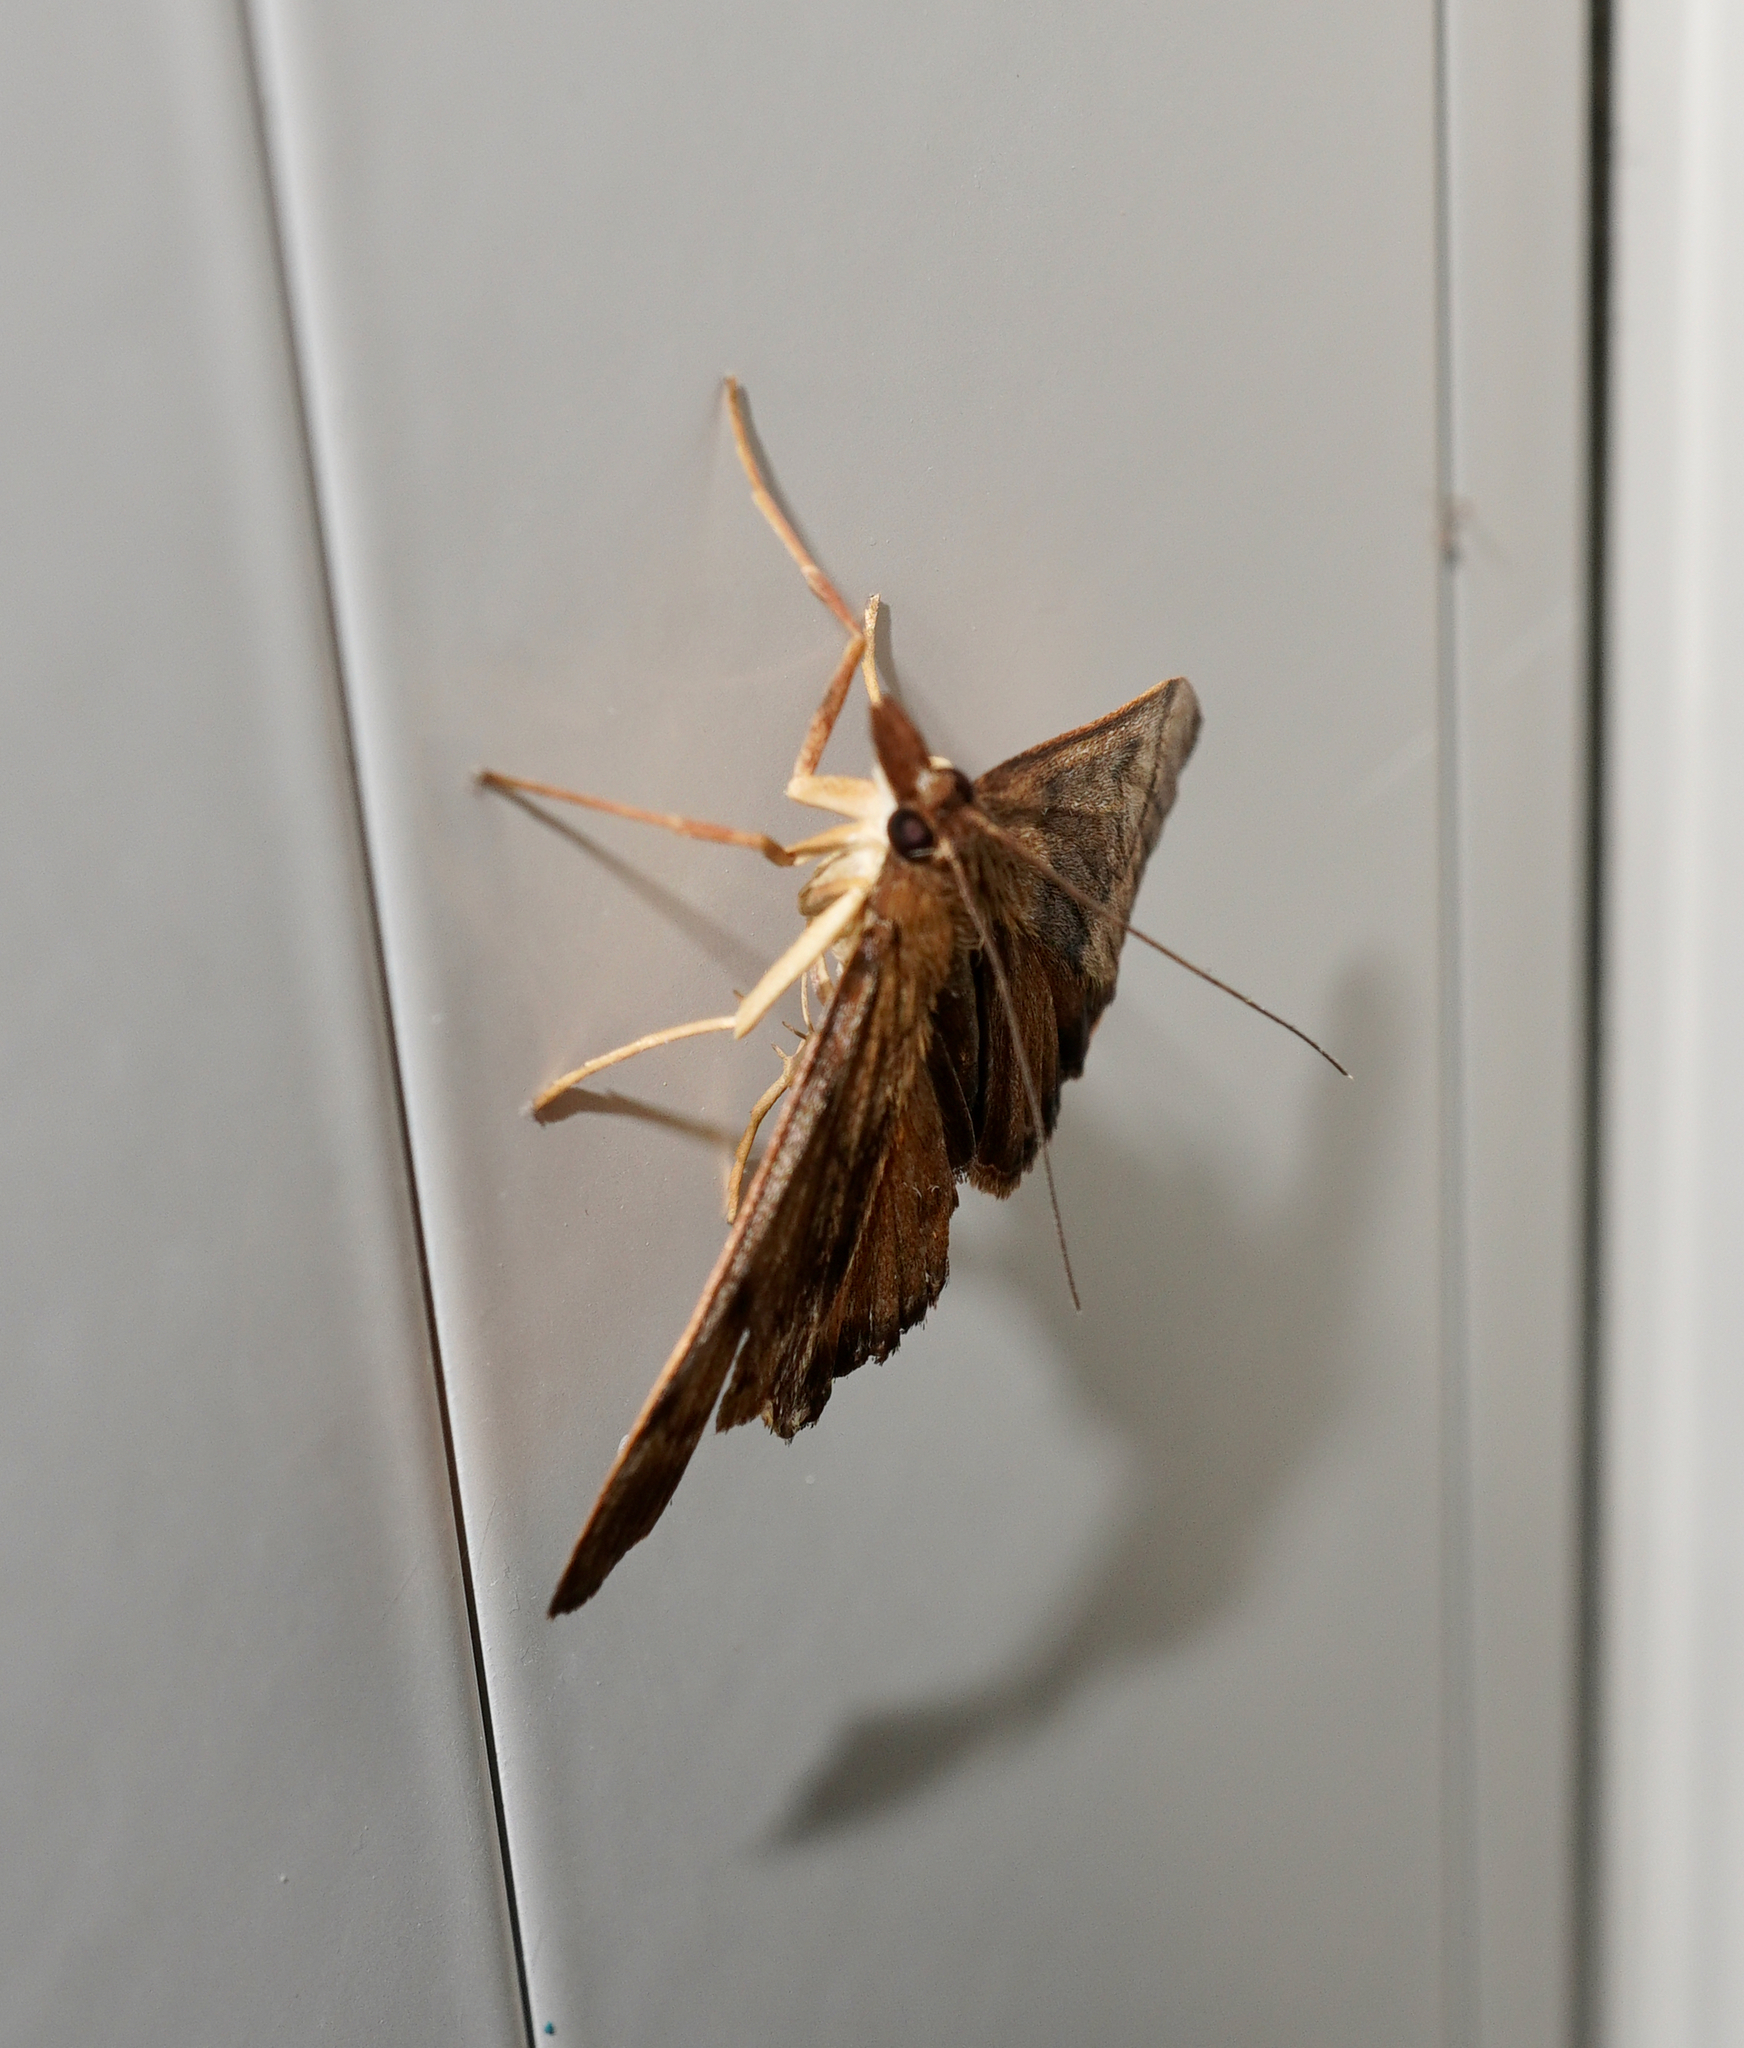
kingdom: Animalia
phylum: Arthropoda
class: Insecta
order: Lepidoptera
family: Crambidae
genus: Uresiphita
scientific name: Uresiphita
